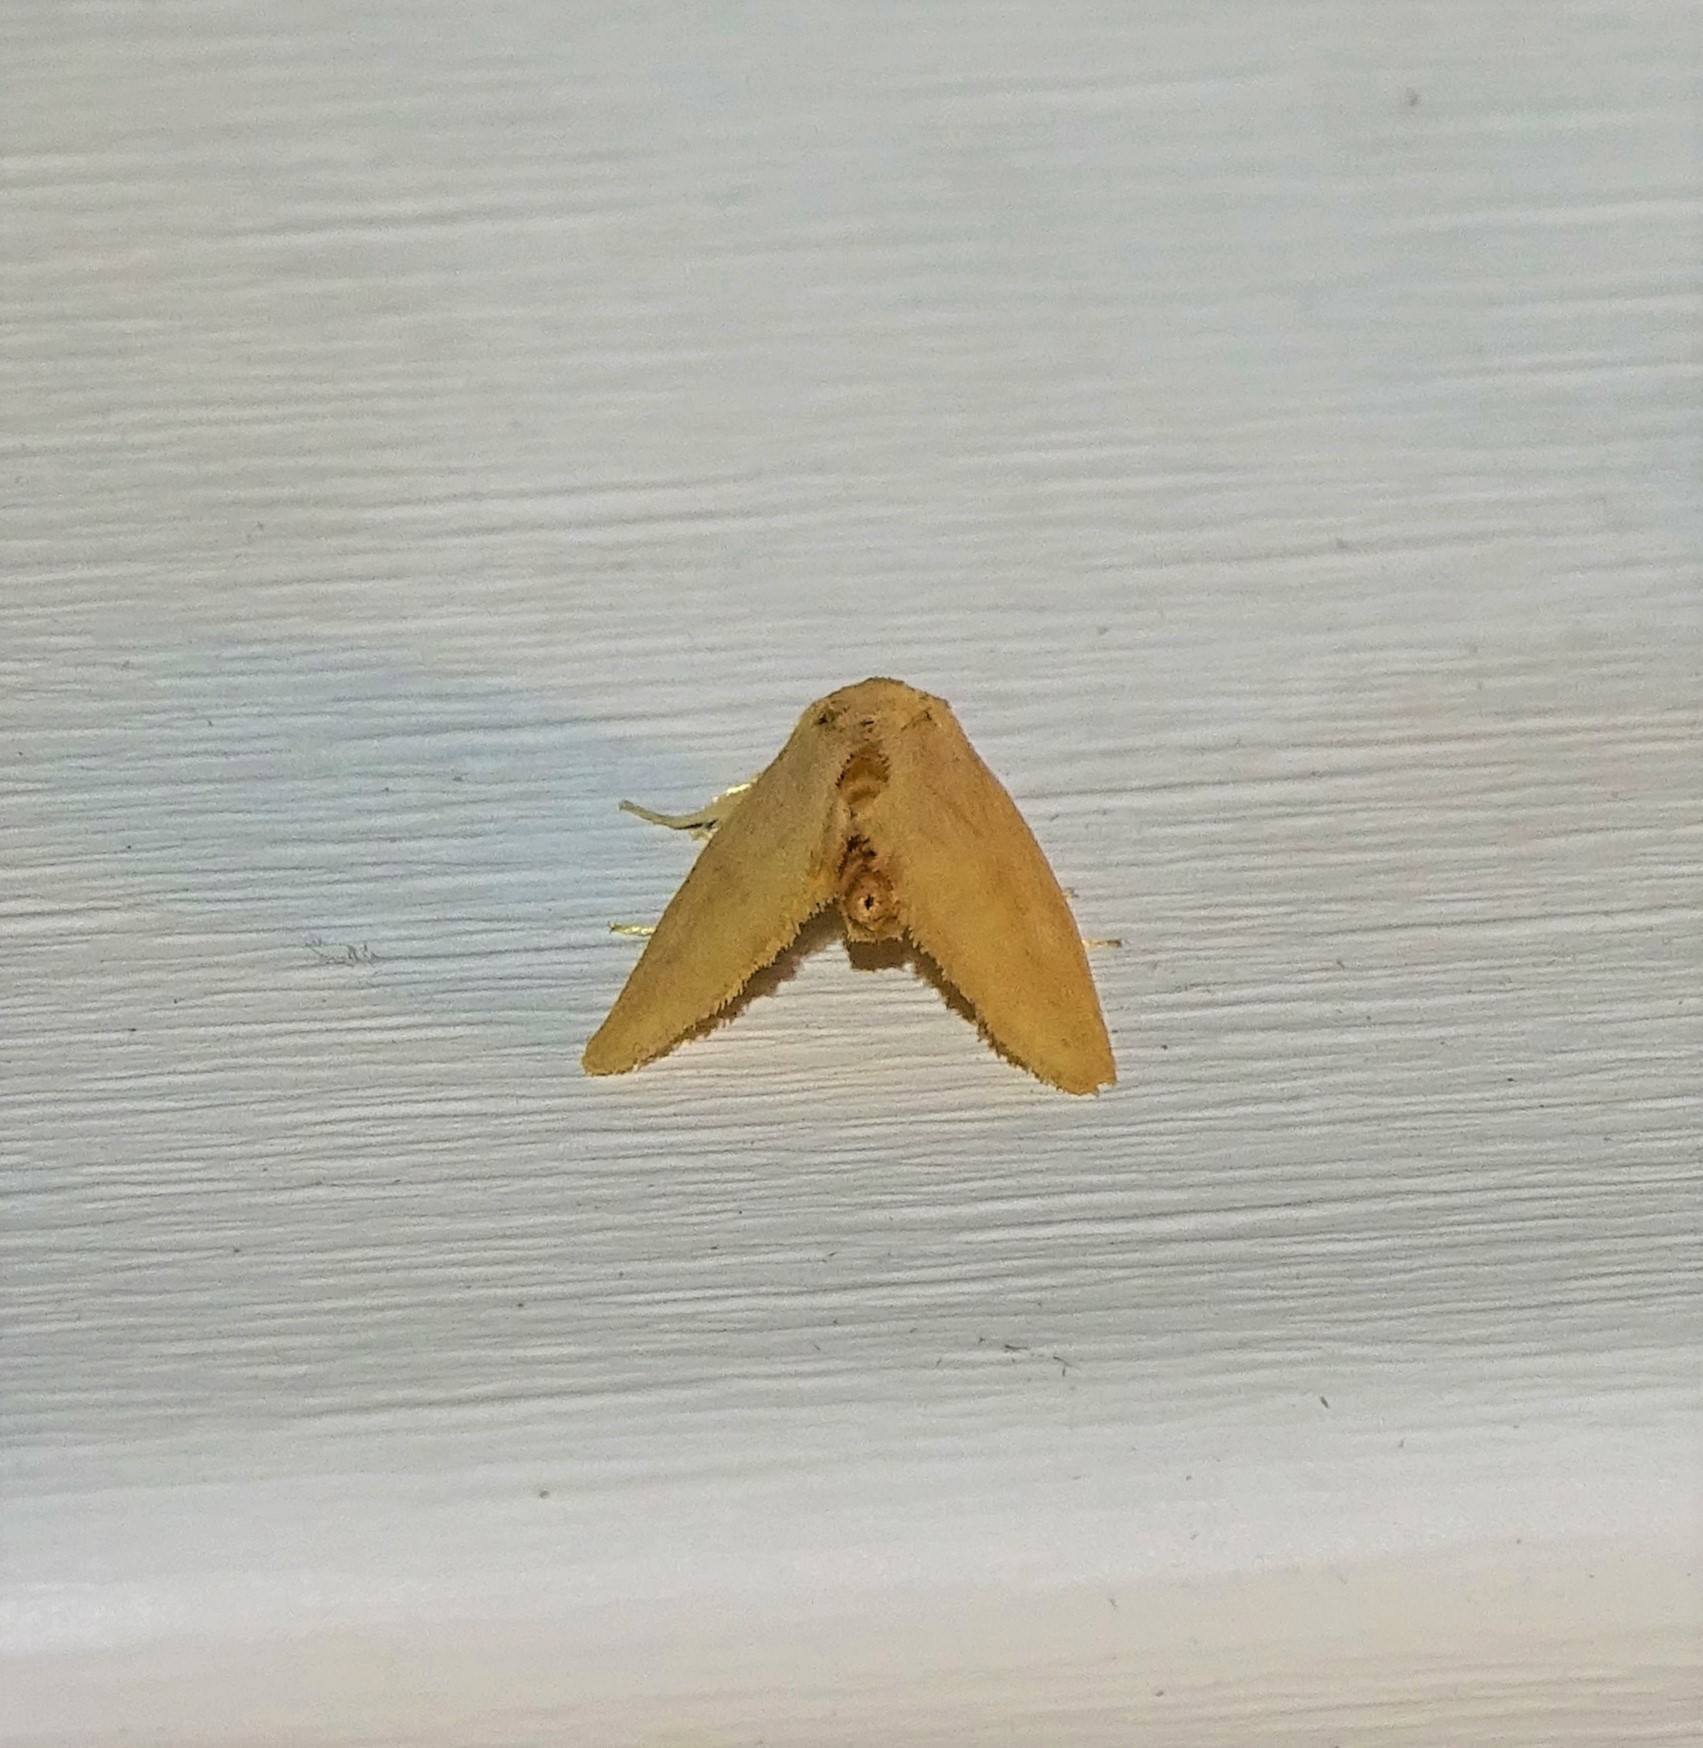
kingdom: Animalia
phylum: Arthropoda
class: Insecta
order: Lepidoptera
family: Limacodidae
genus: Tortricidia
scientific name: Tortricidia pallida
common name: Red-crossed button slug moth
